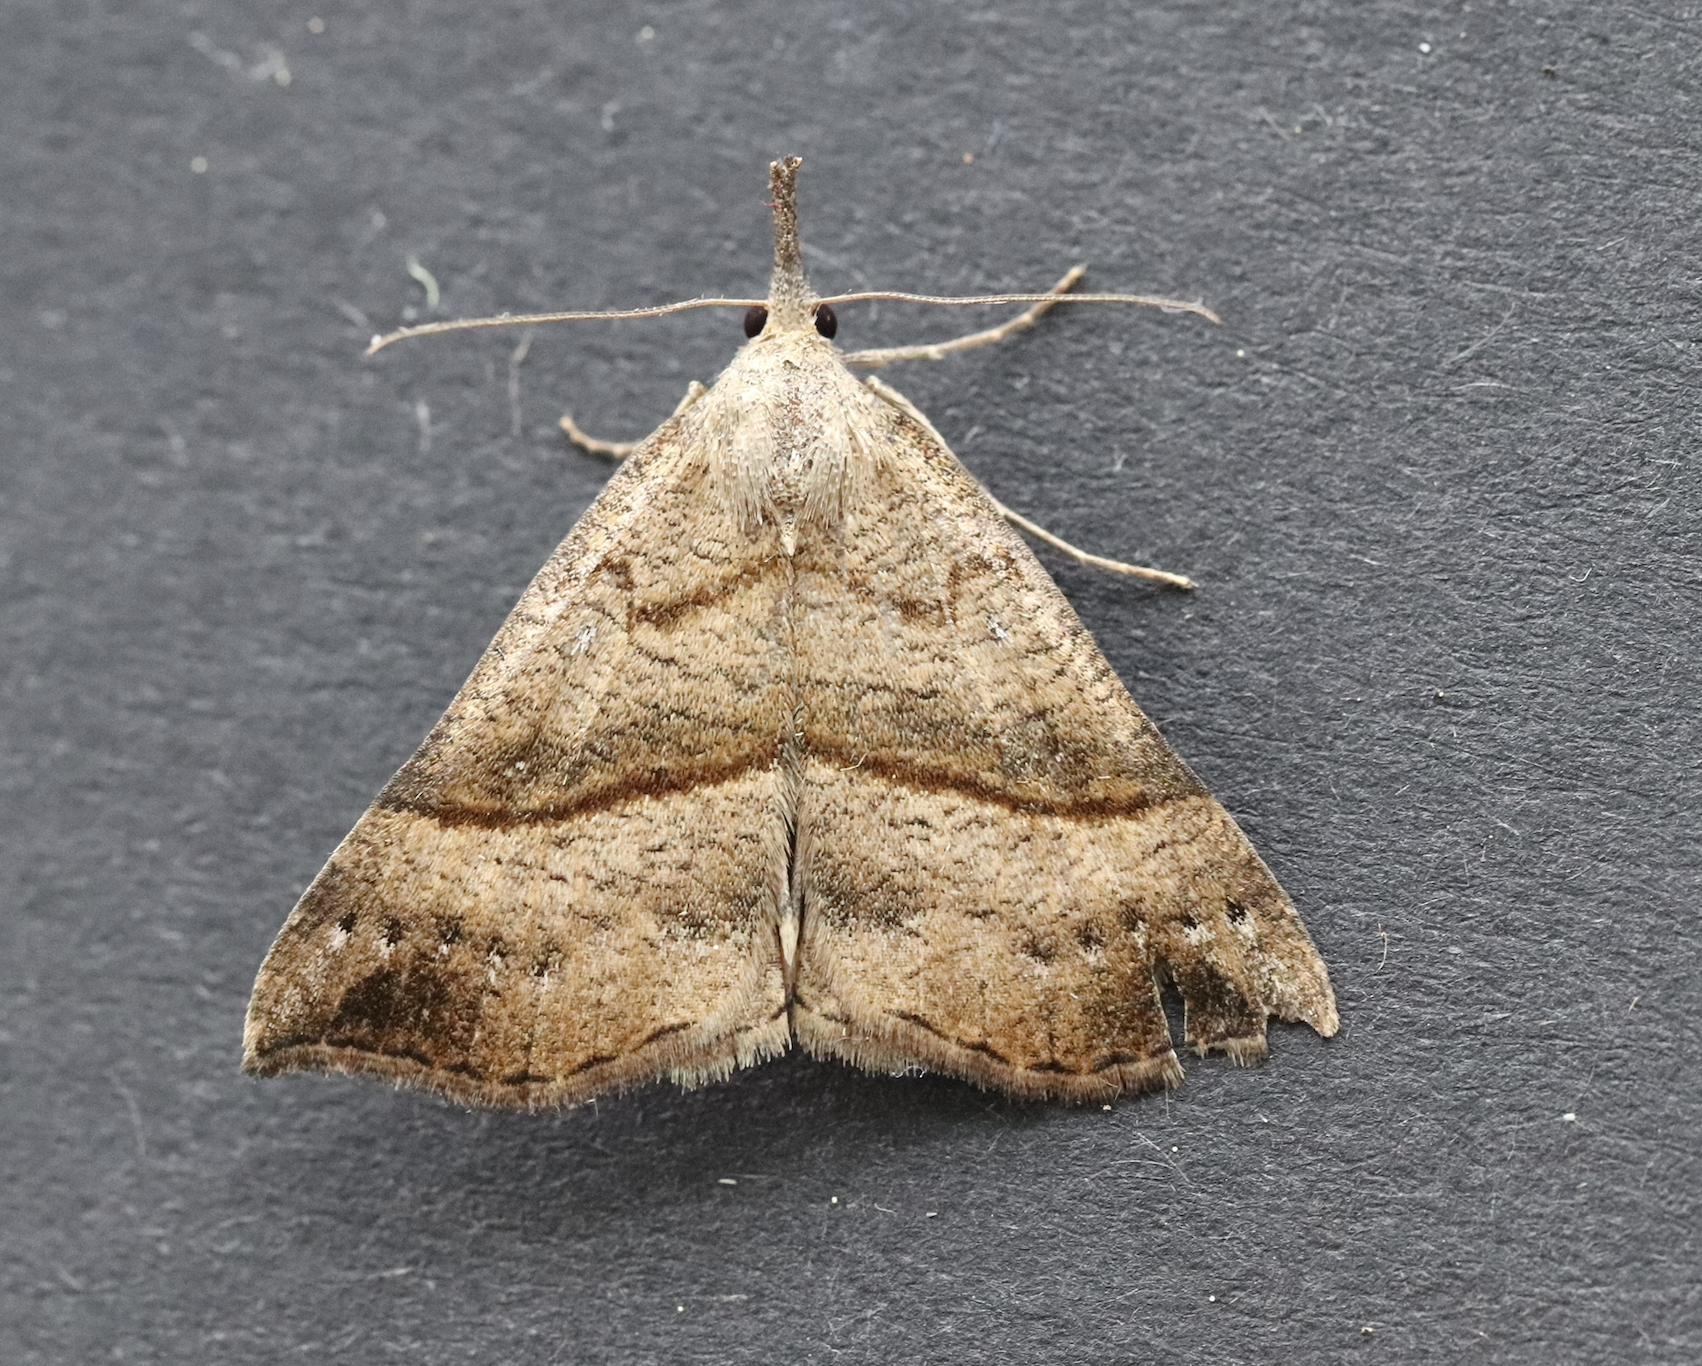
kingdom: Animalia
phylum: Arthropoda
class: Insecta
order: Lepidoptera
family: Erebidae
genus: Hypena
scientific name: Hypena proboscidalis
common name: Snout
